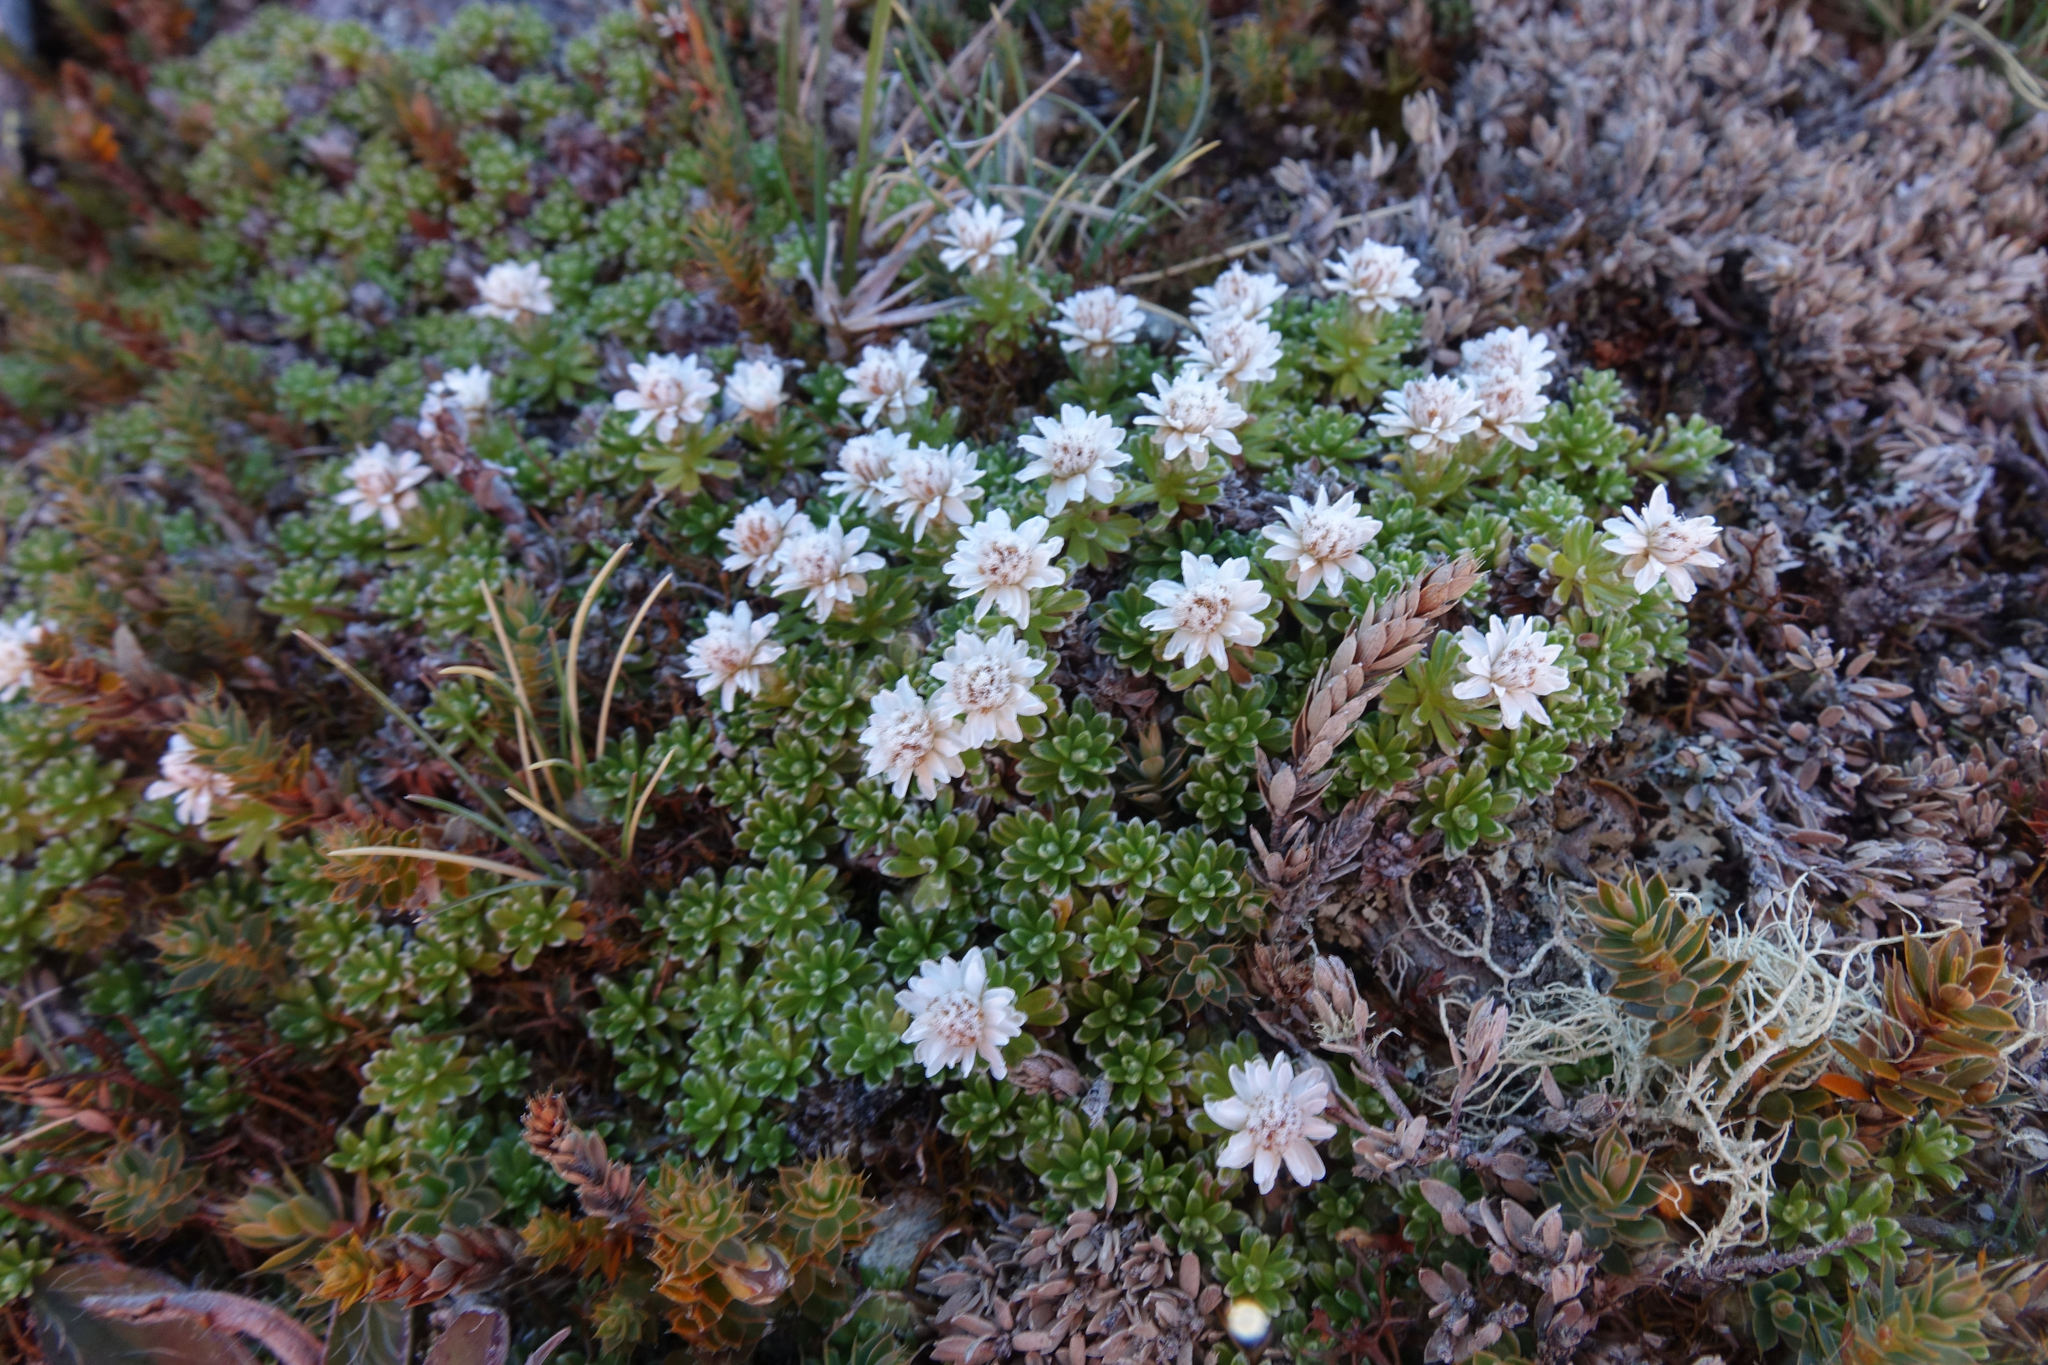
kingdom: Plantae
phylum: Tracheophyta
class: Magnoliopsida
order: Asterales
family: Asteraceae
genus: Raoulia
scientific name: Raoulia subsericea
